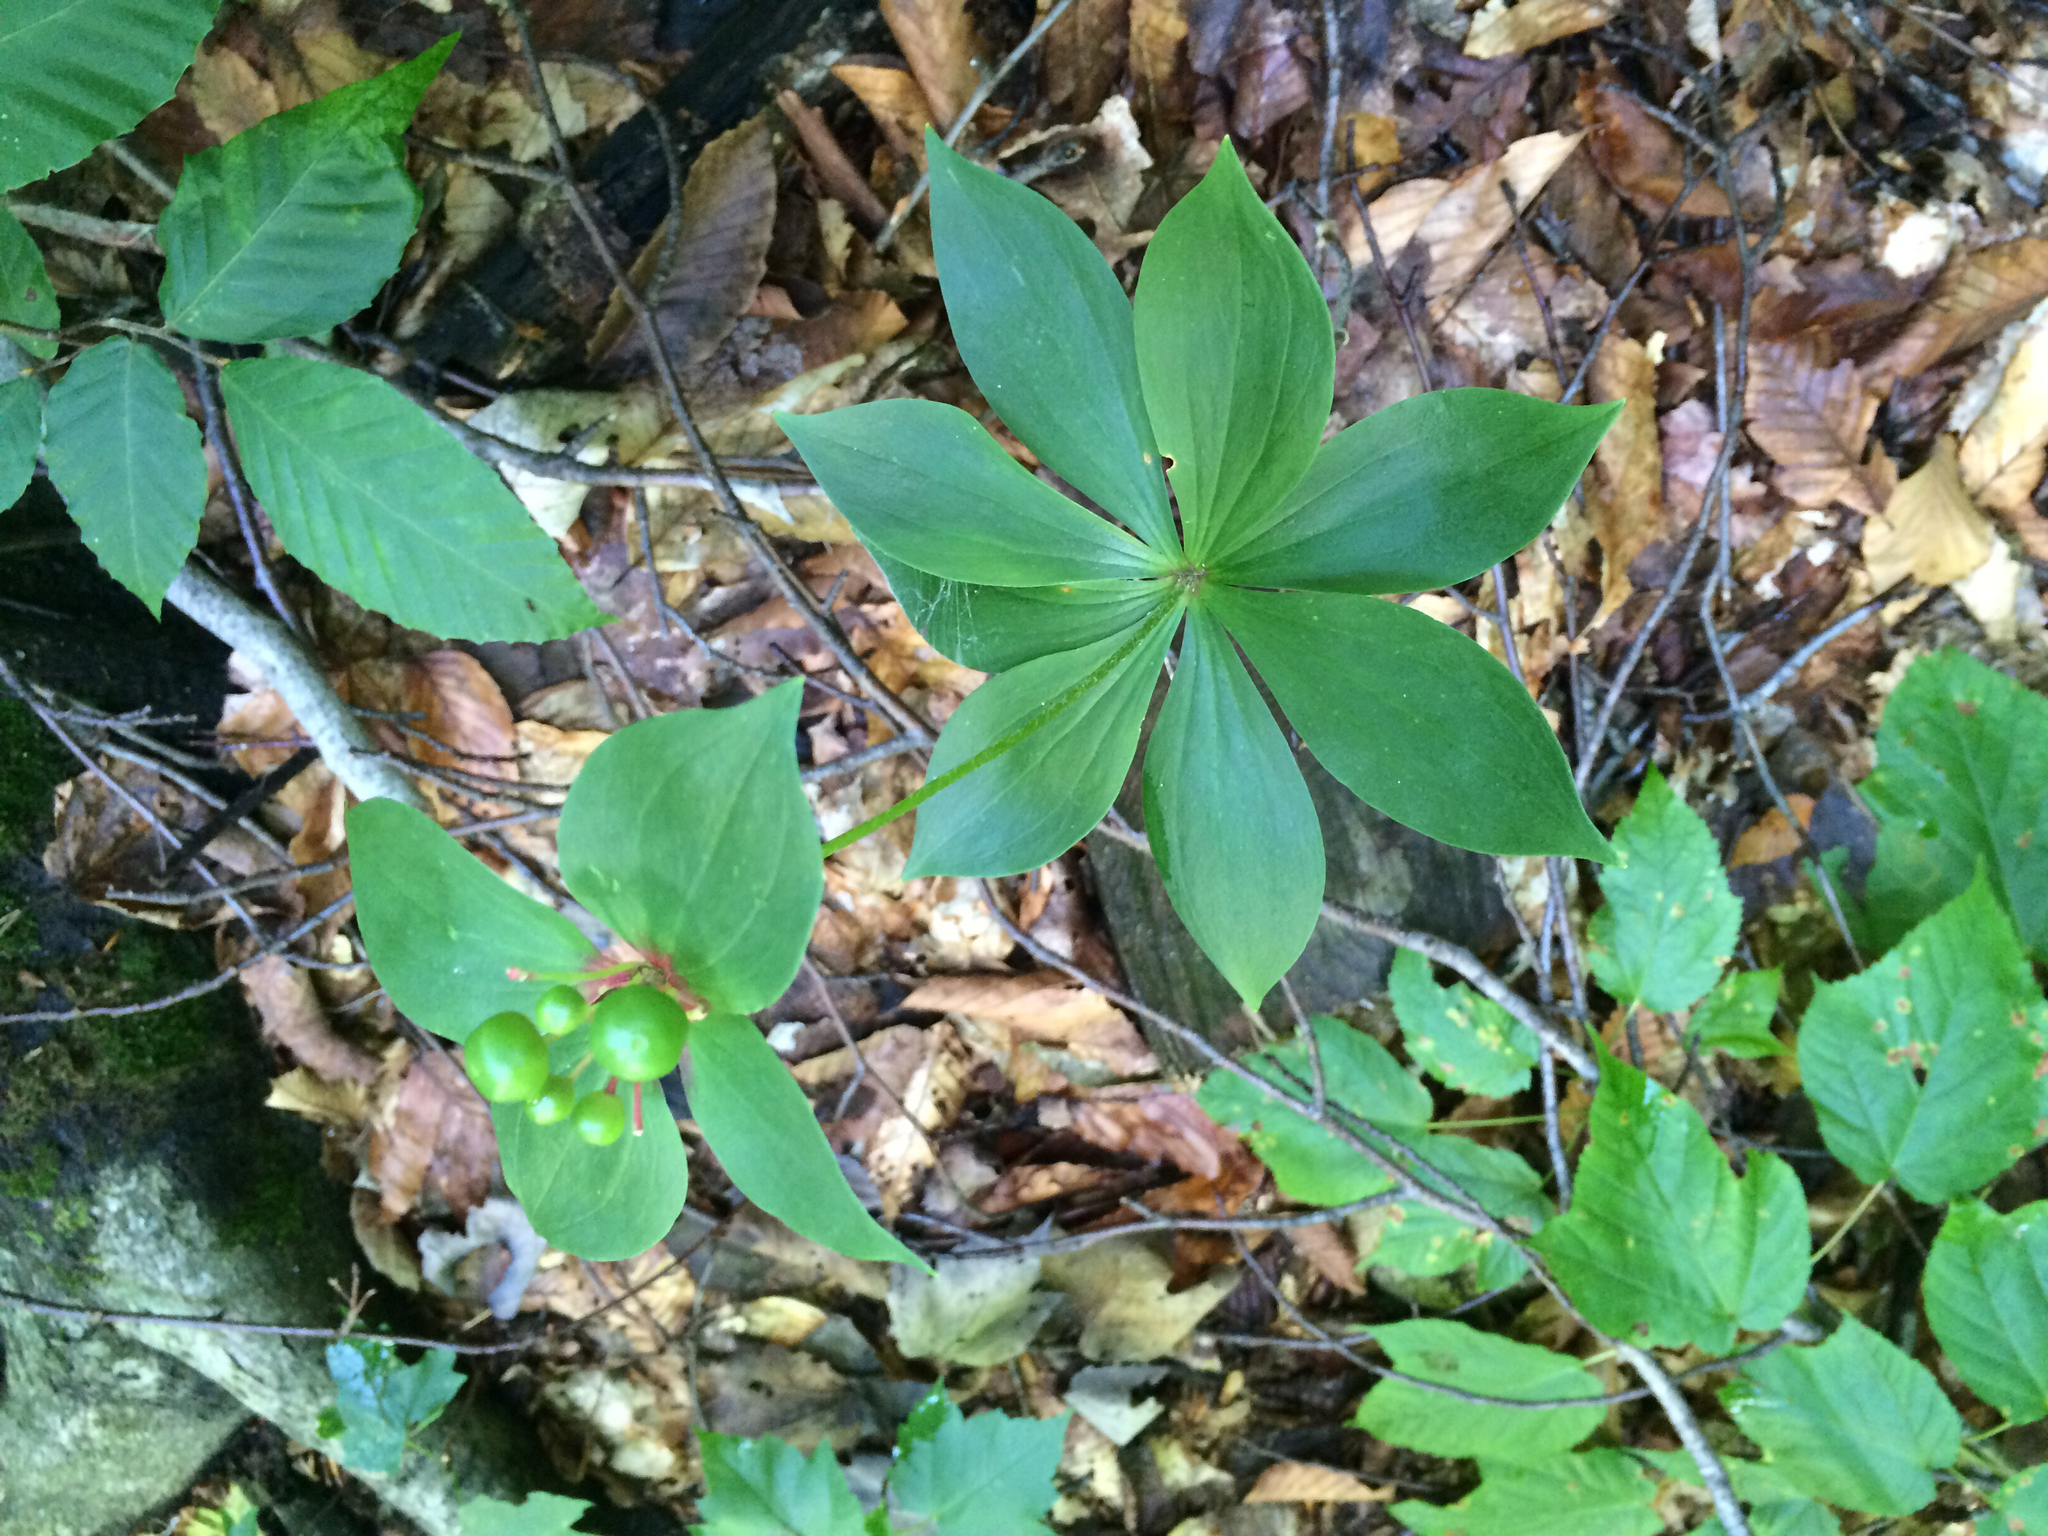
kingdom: Plantae
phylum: Tracheophyta
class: Liliopsida
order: Liliales
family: Liliaceae
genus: Medeola
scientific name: Medeola virginiana
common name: Indian cucumber-root
